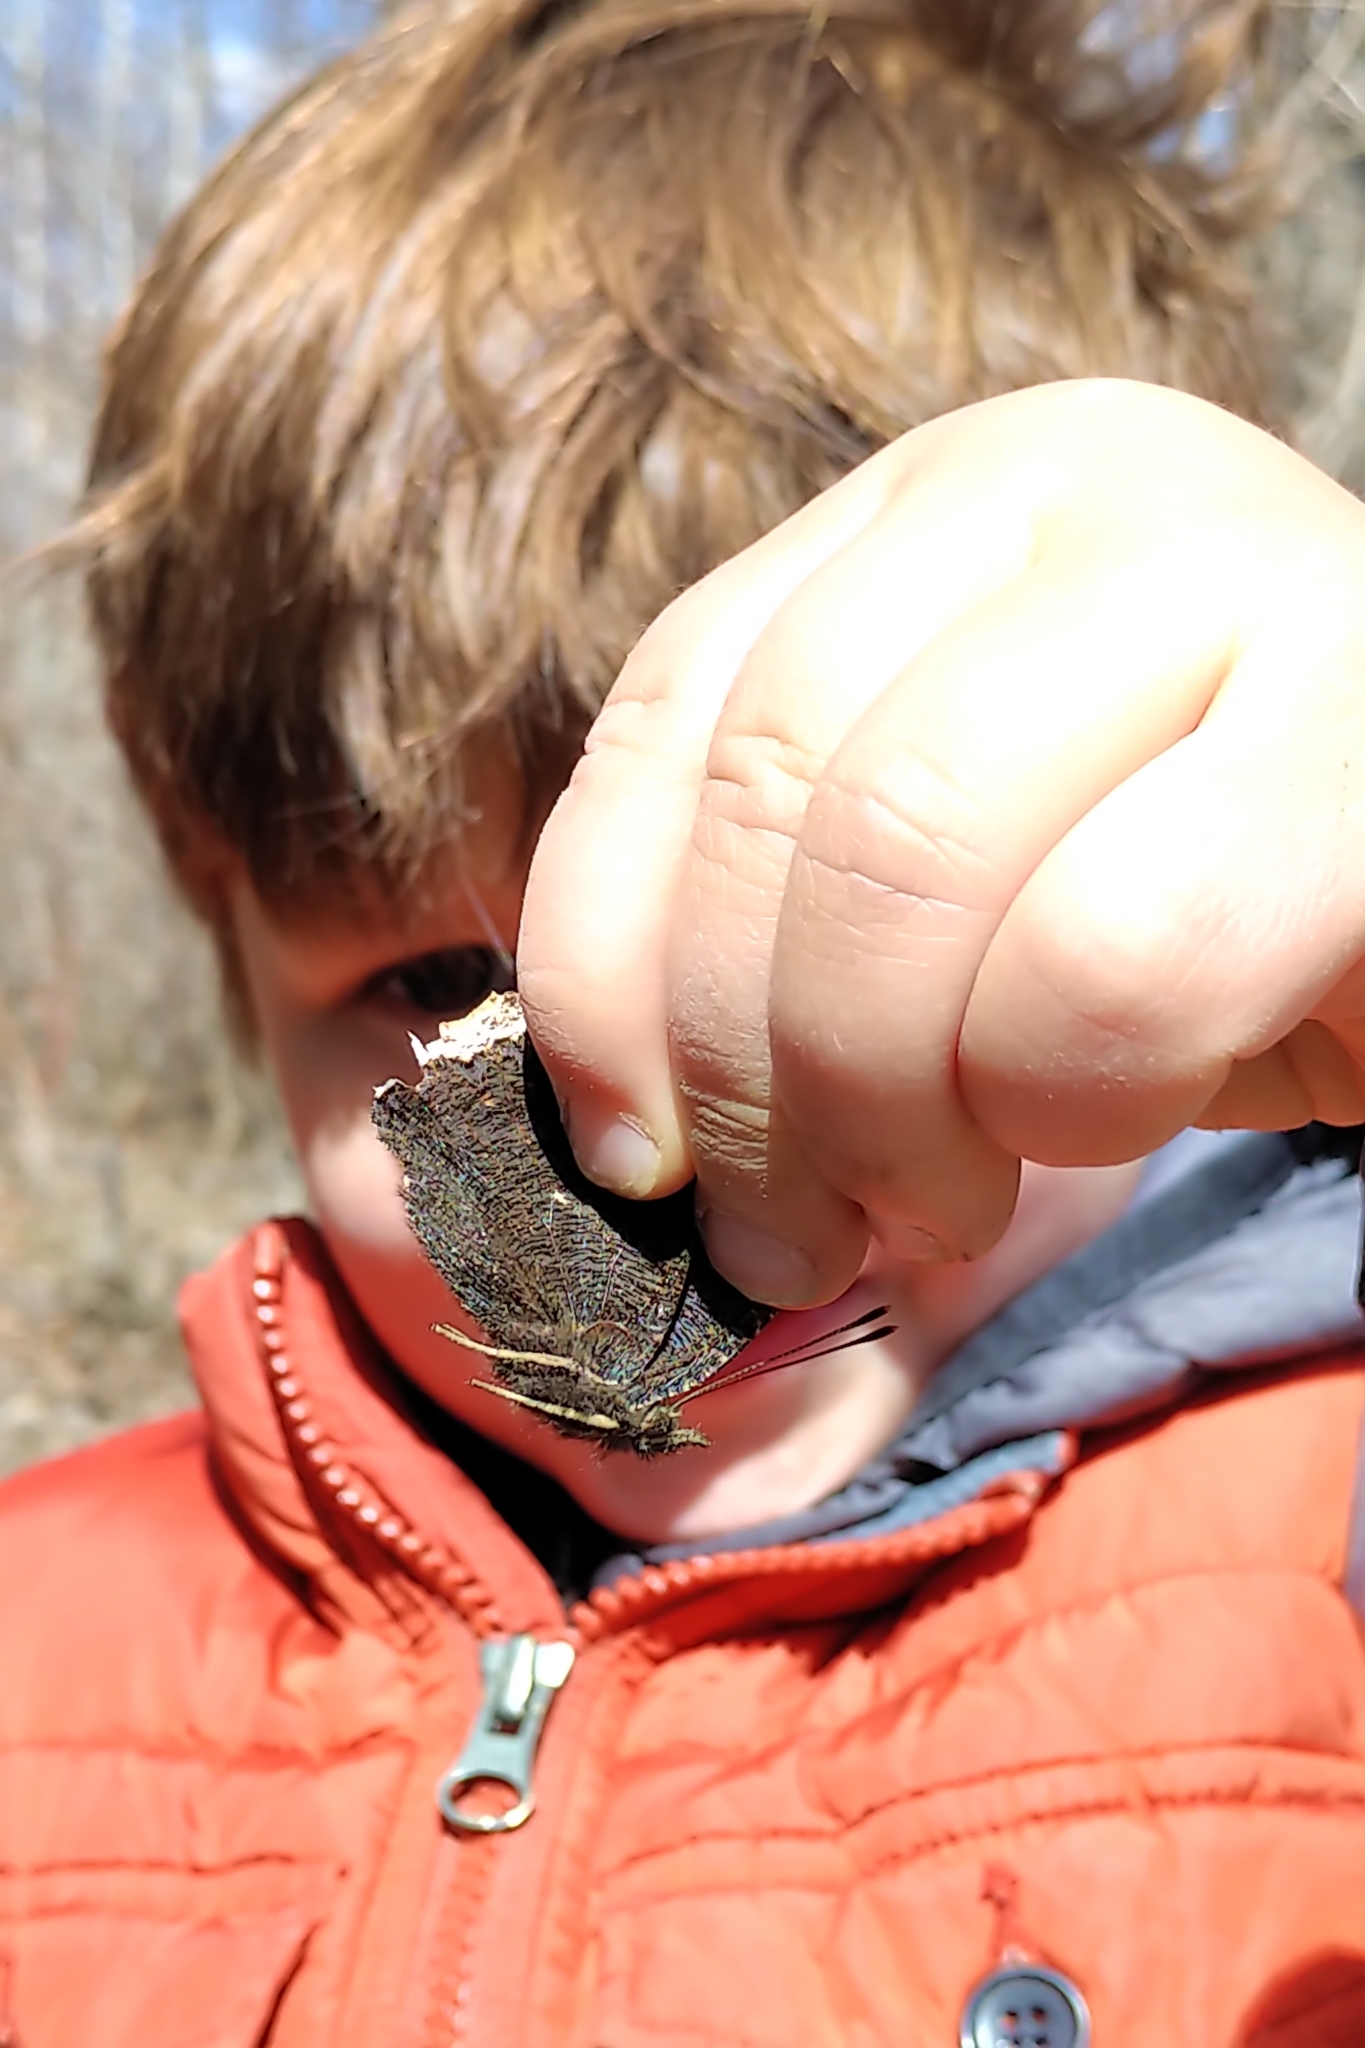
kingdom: Animalia
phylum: Arthropoda
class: Insecta
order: Lepidoptera
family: Nymphalidae
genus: Nymphalis
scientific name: Nymphalis antiopa
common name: Camberwell beauty
